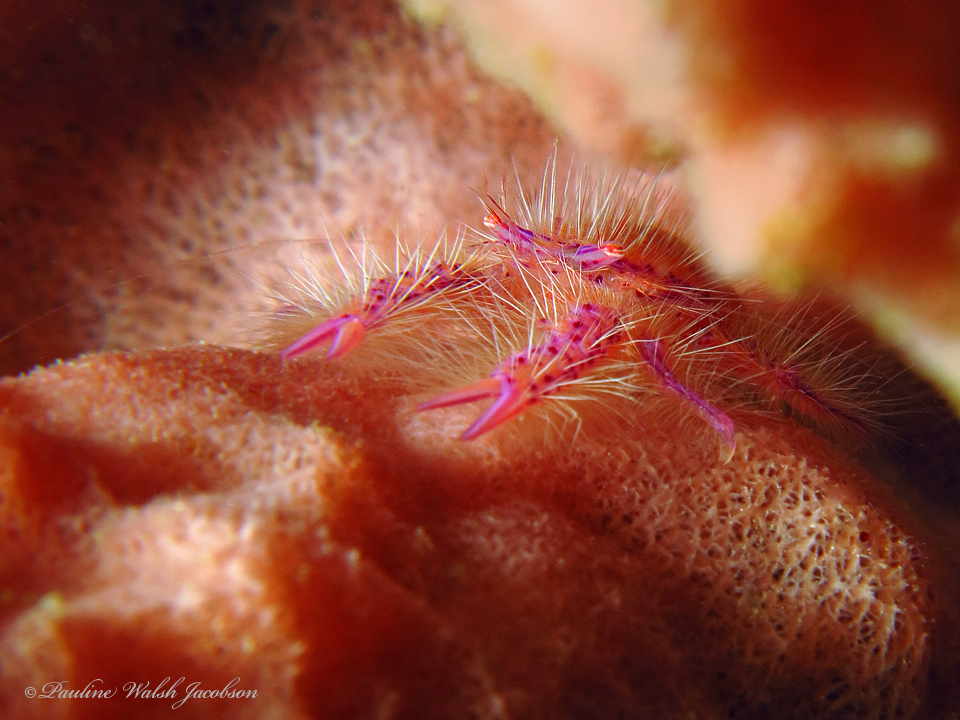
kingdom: Animalia
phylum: Arthropoda
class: Malacostraca
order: Decapoda
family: Galatheidae
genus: Lauriea
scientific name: Lauriea siagiani
